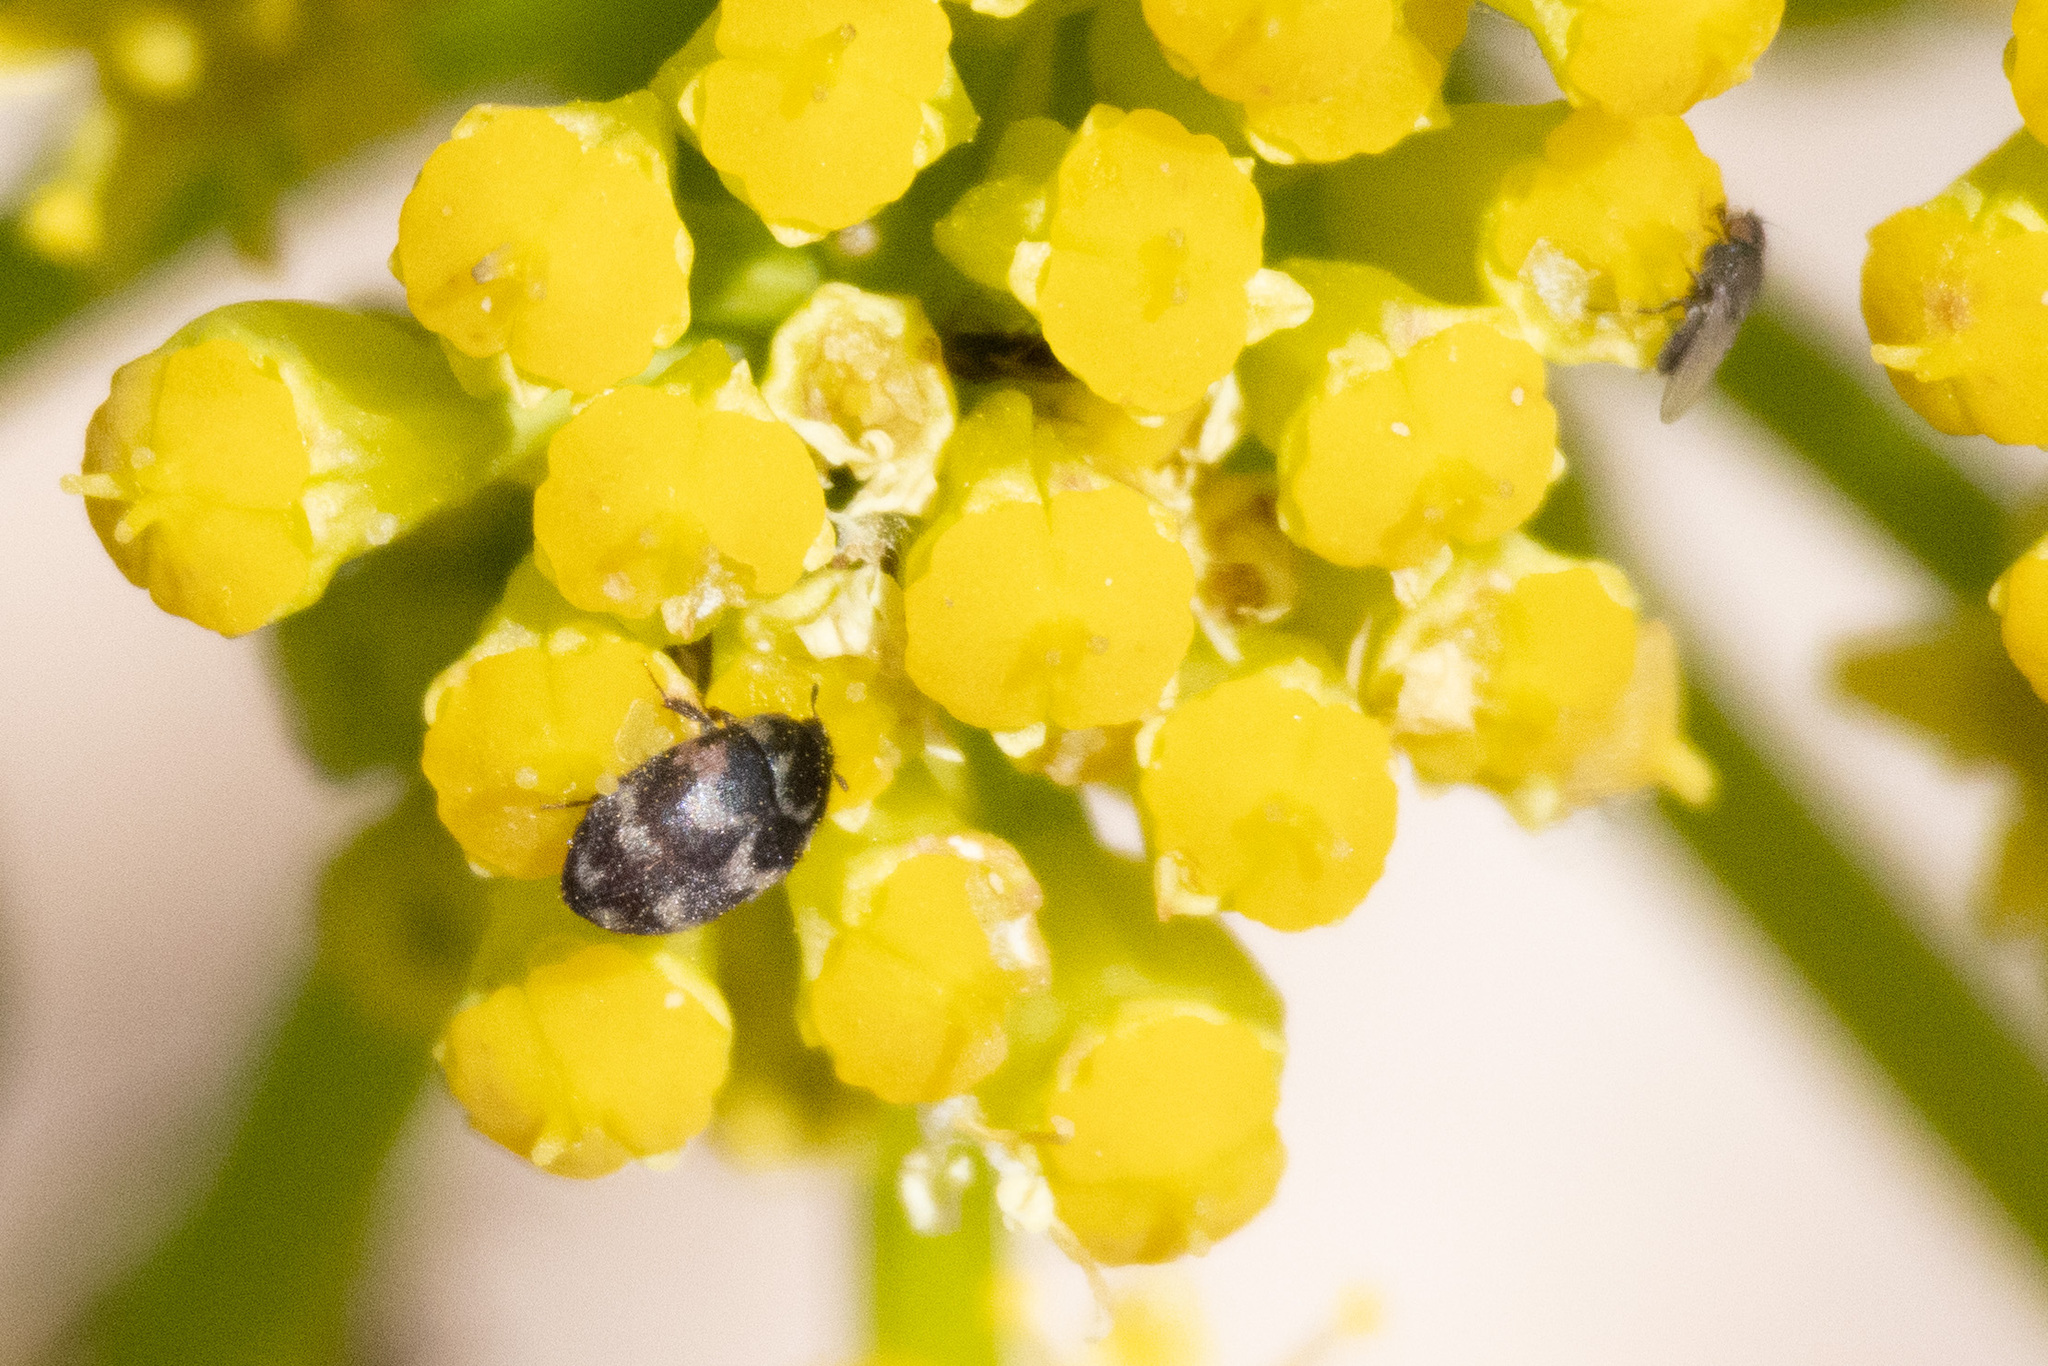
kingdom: Animalia
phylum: Arthropoda
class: Insecta
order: Coleoptera
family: Dermestidae
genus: Attagenus
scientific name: Attagenus wollastoni
